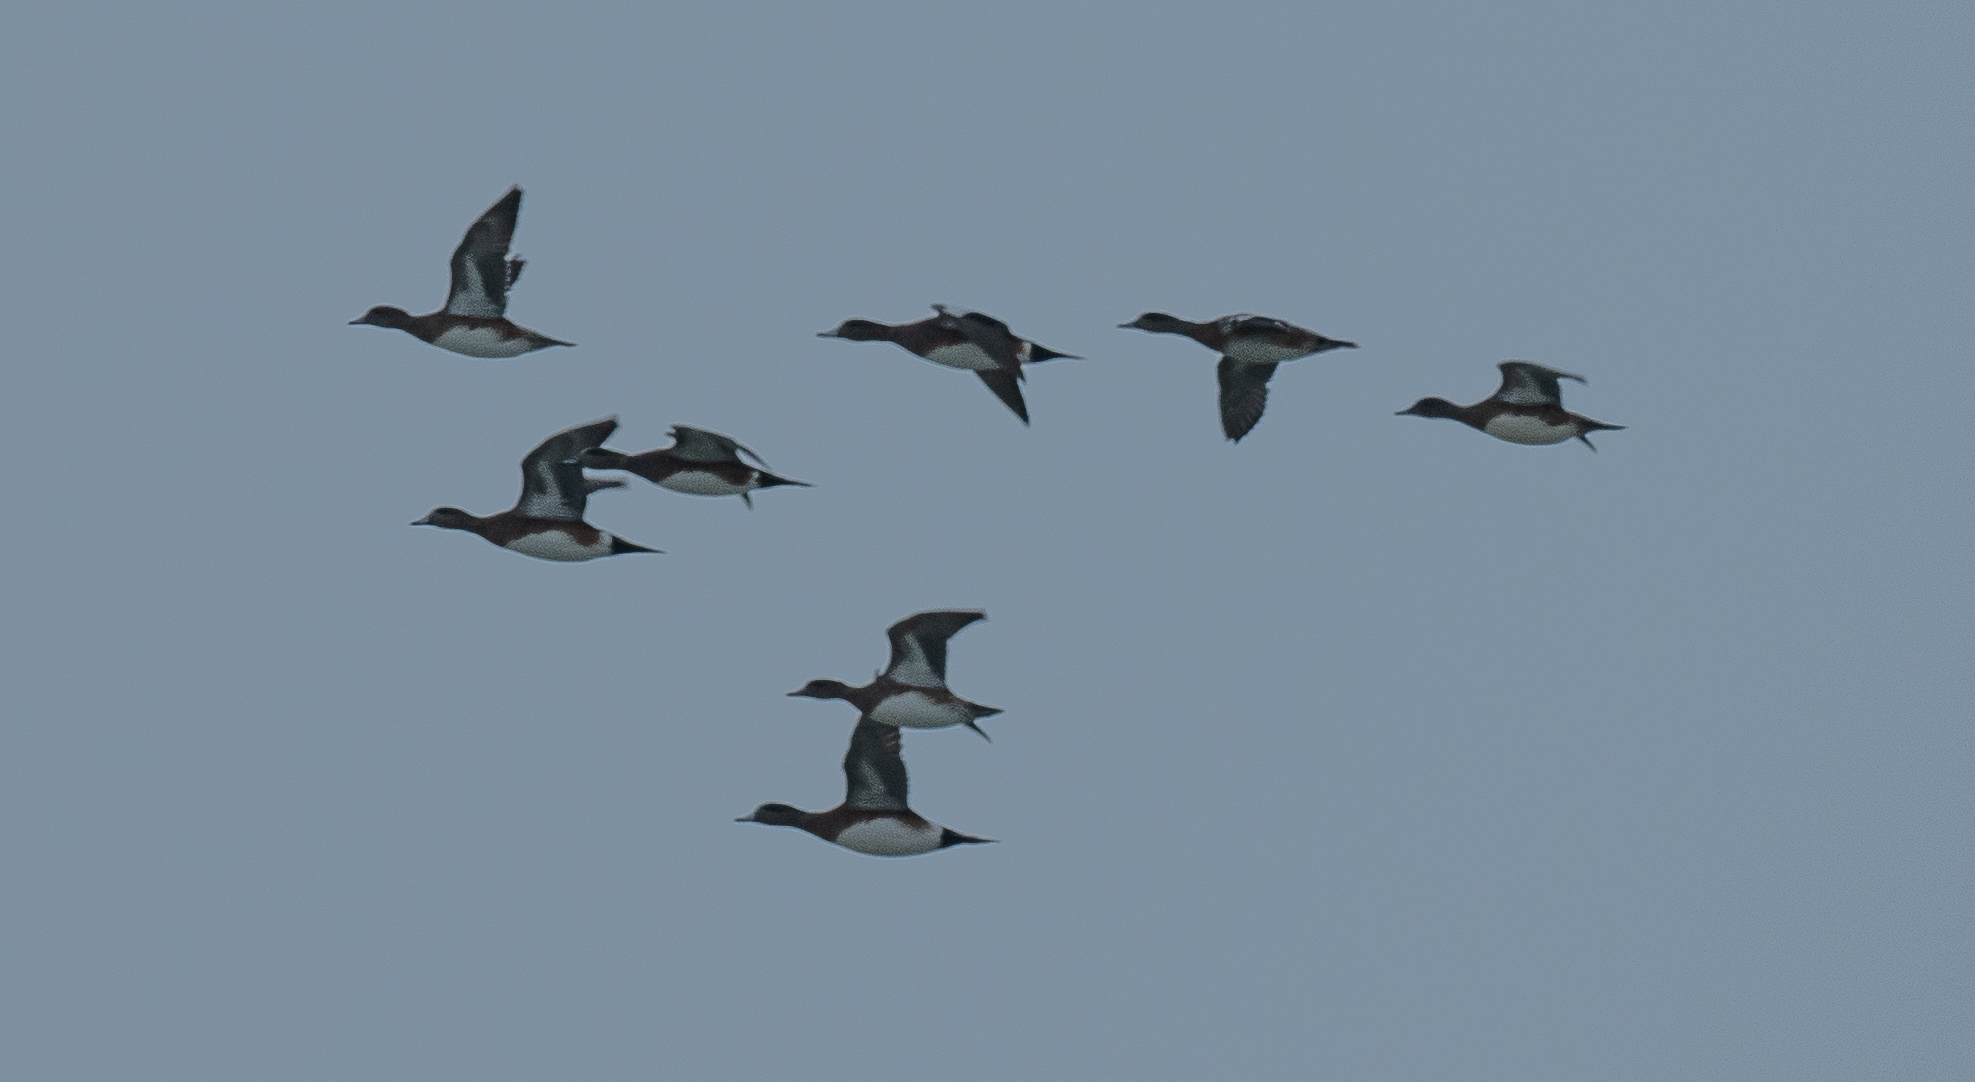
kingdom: Animalia
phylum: Chordata
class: Aves
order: Anseriformes
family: Anatidae
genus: Mareca
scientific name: Mareca americana
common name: American wigeon
